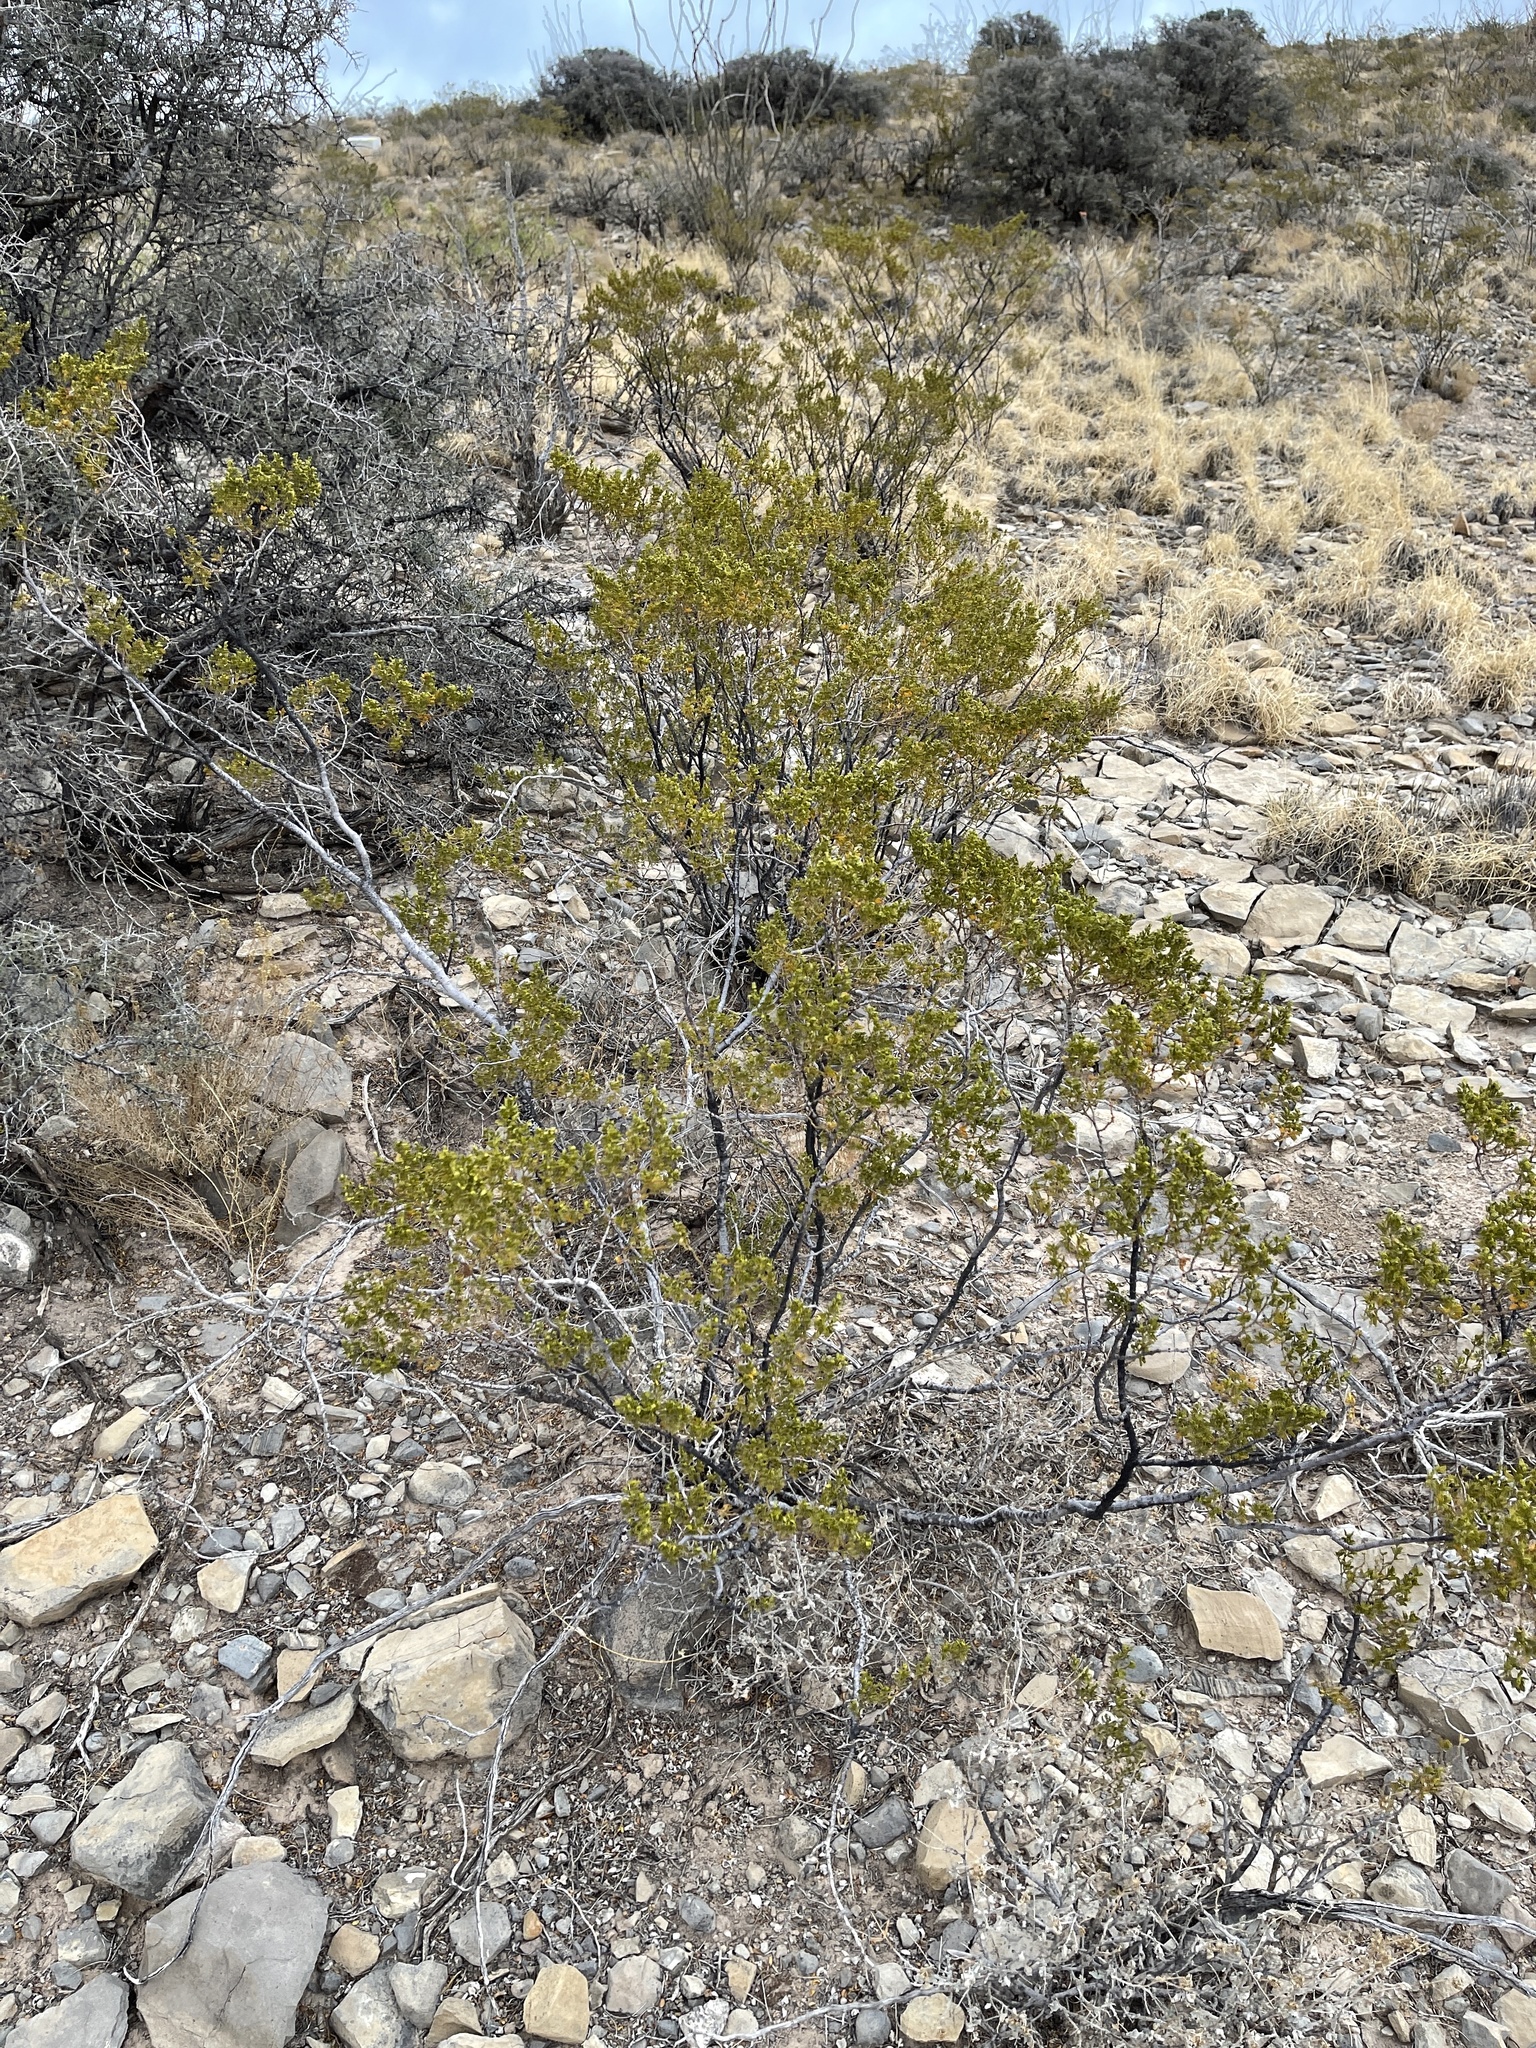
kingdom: Plantae
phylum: Tracheophyta
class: Magnoliopsida
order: Zygophyllales
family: Zygophyllaceae
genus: Larrea
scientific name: Larrea tridentata
